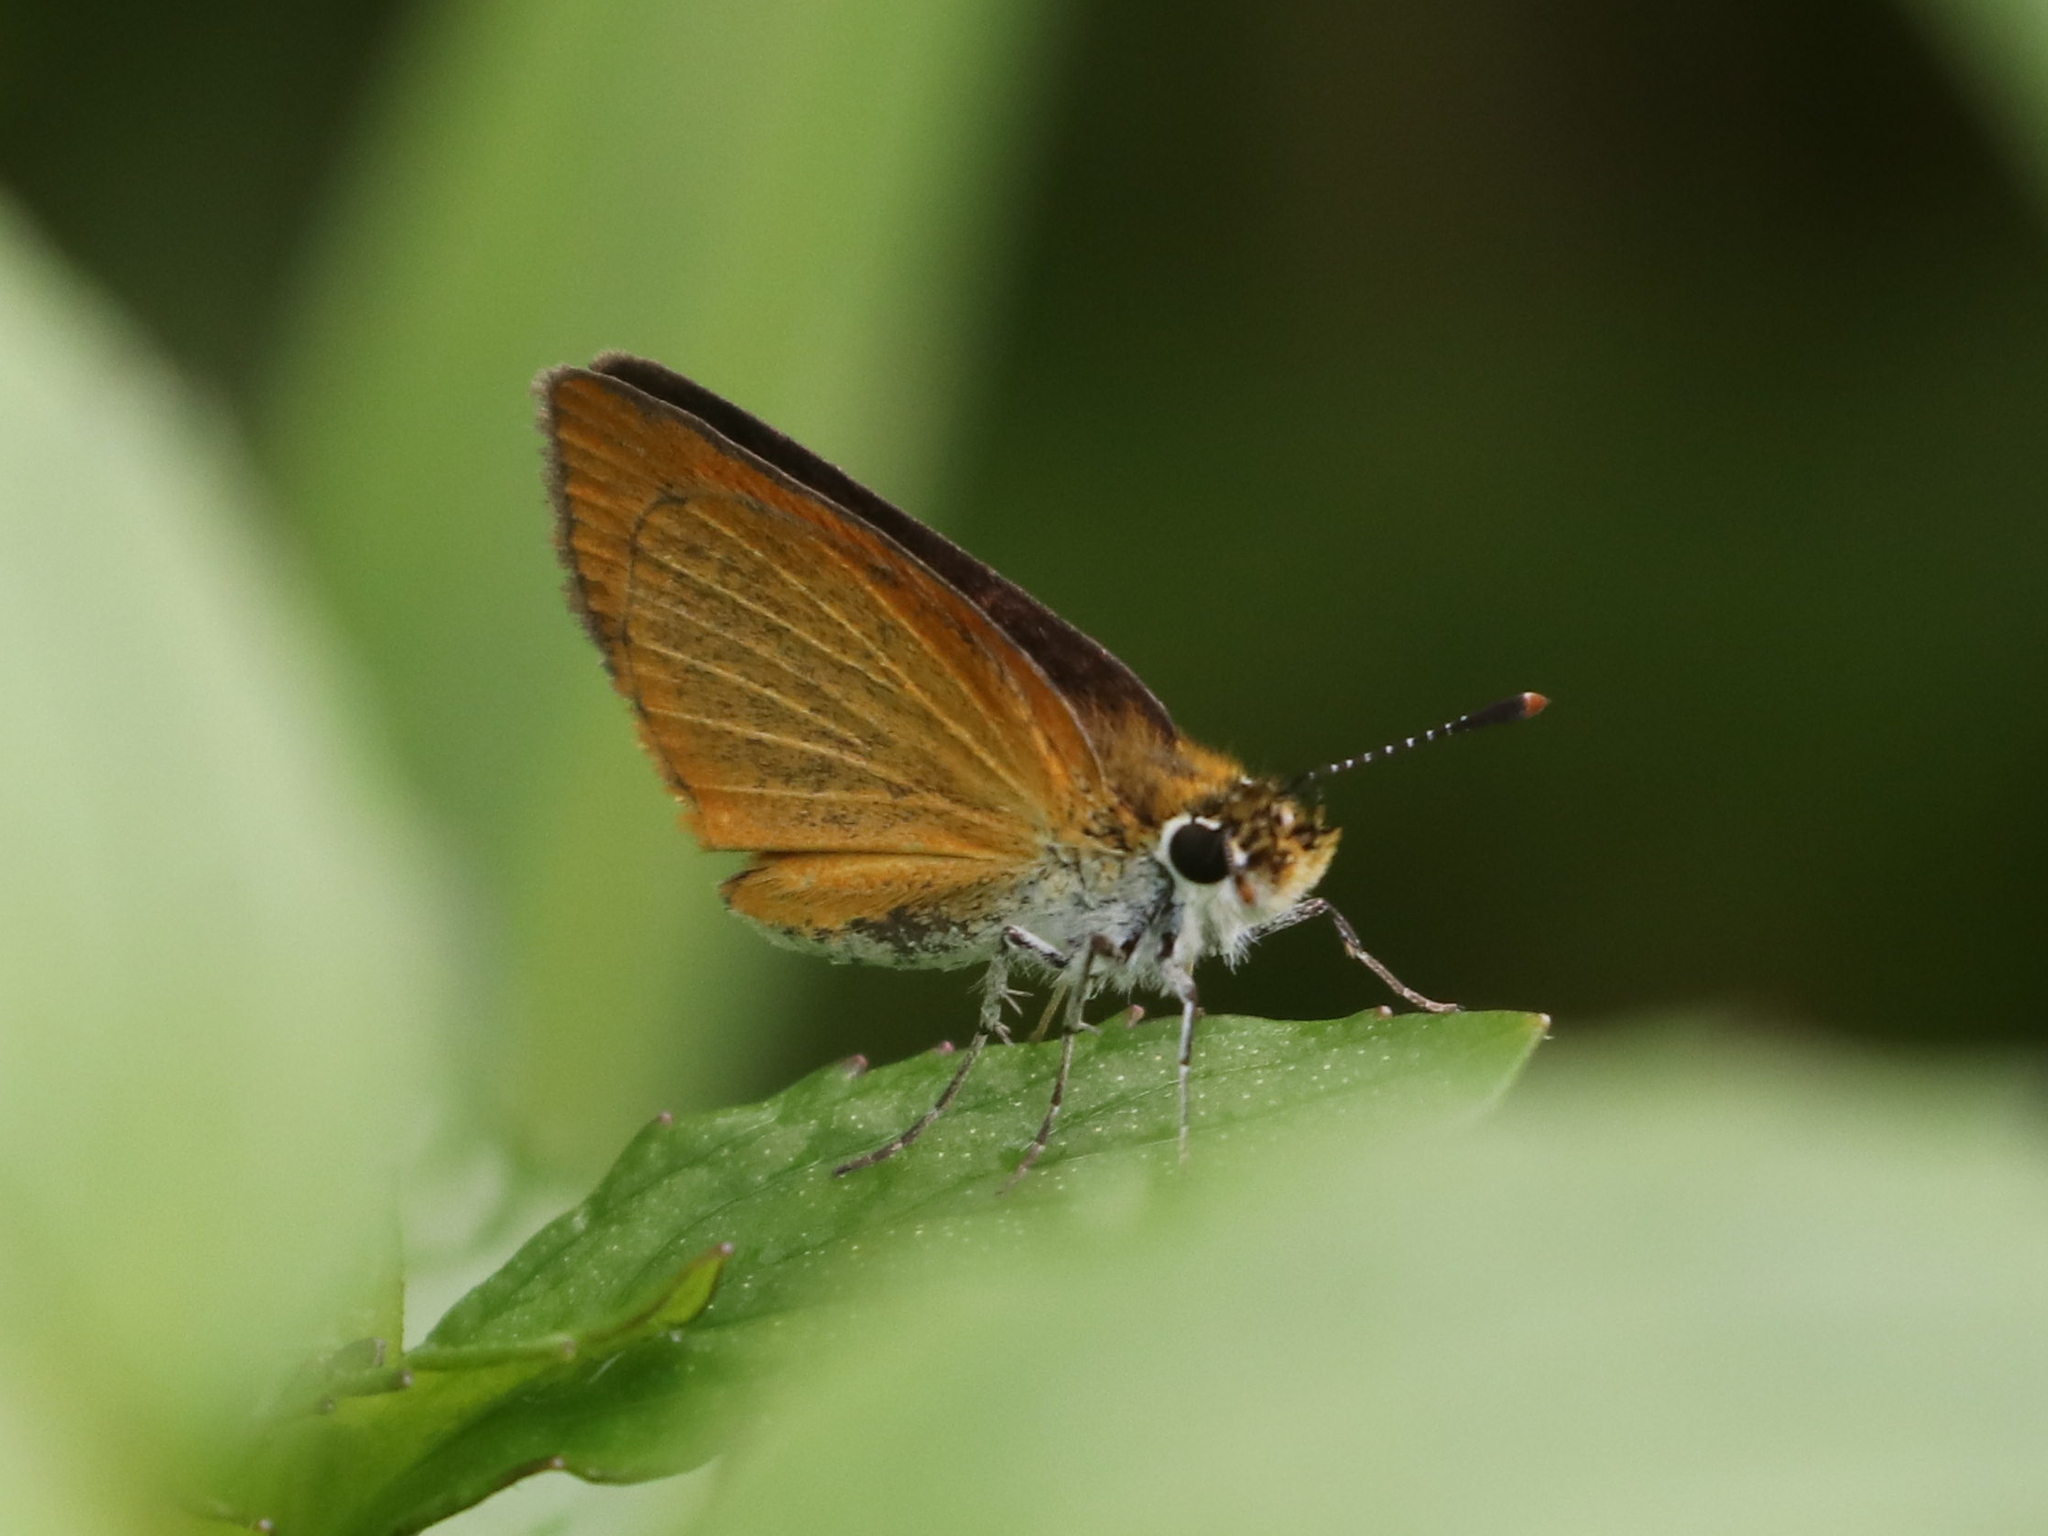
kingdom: Animalia
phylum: Arthropoda
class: Insecta
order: Lepidoptera
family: Hesperiidae
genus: Ancyloxypha
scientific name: Ancyloxypha numitor
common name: Least skipper
